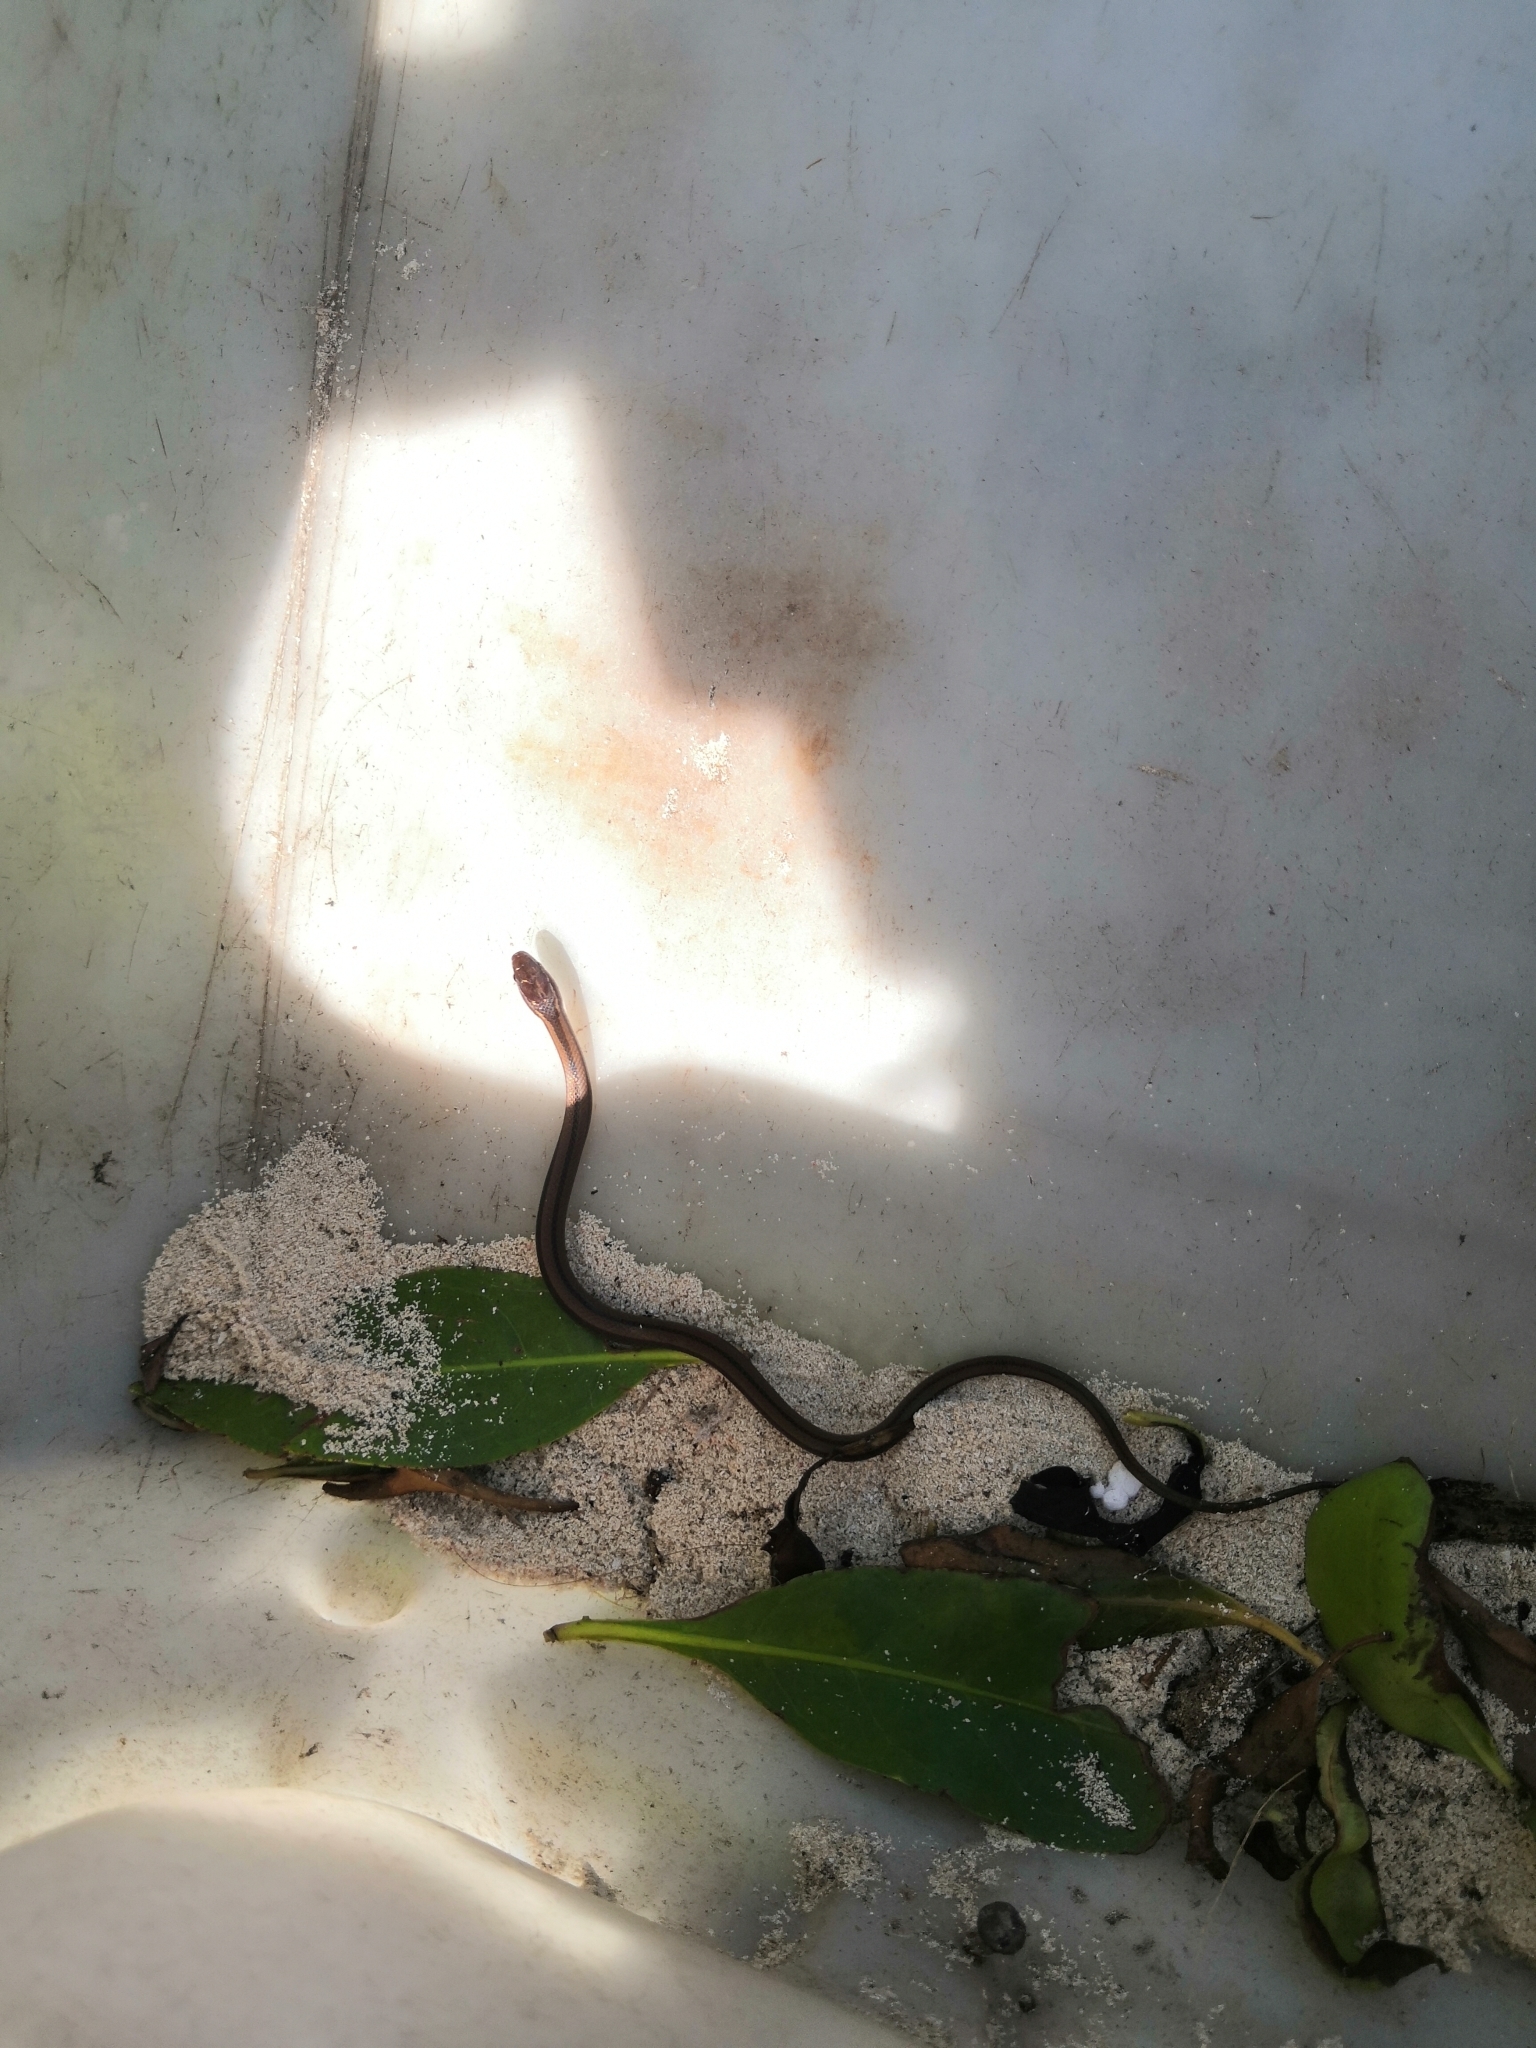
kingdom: Animalia
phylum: Chordata
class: Squamata
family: Colubridae
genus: Coniophanes
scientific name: Coniophanes imperialis
